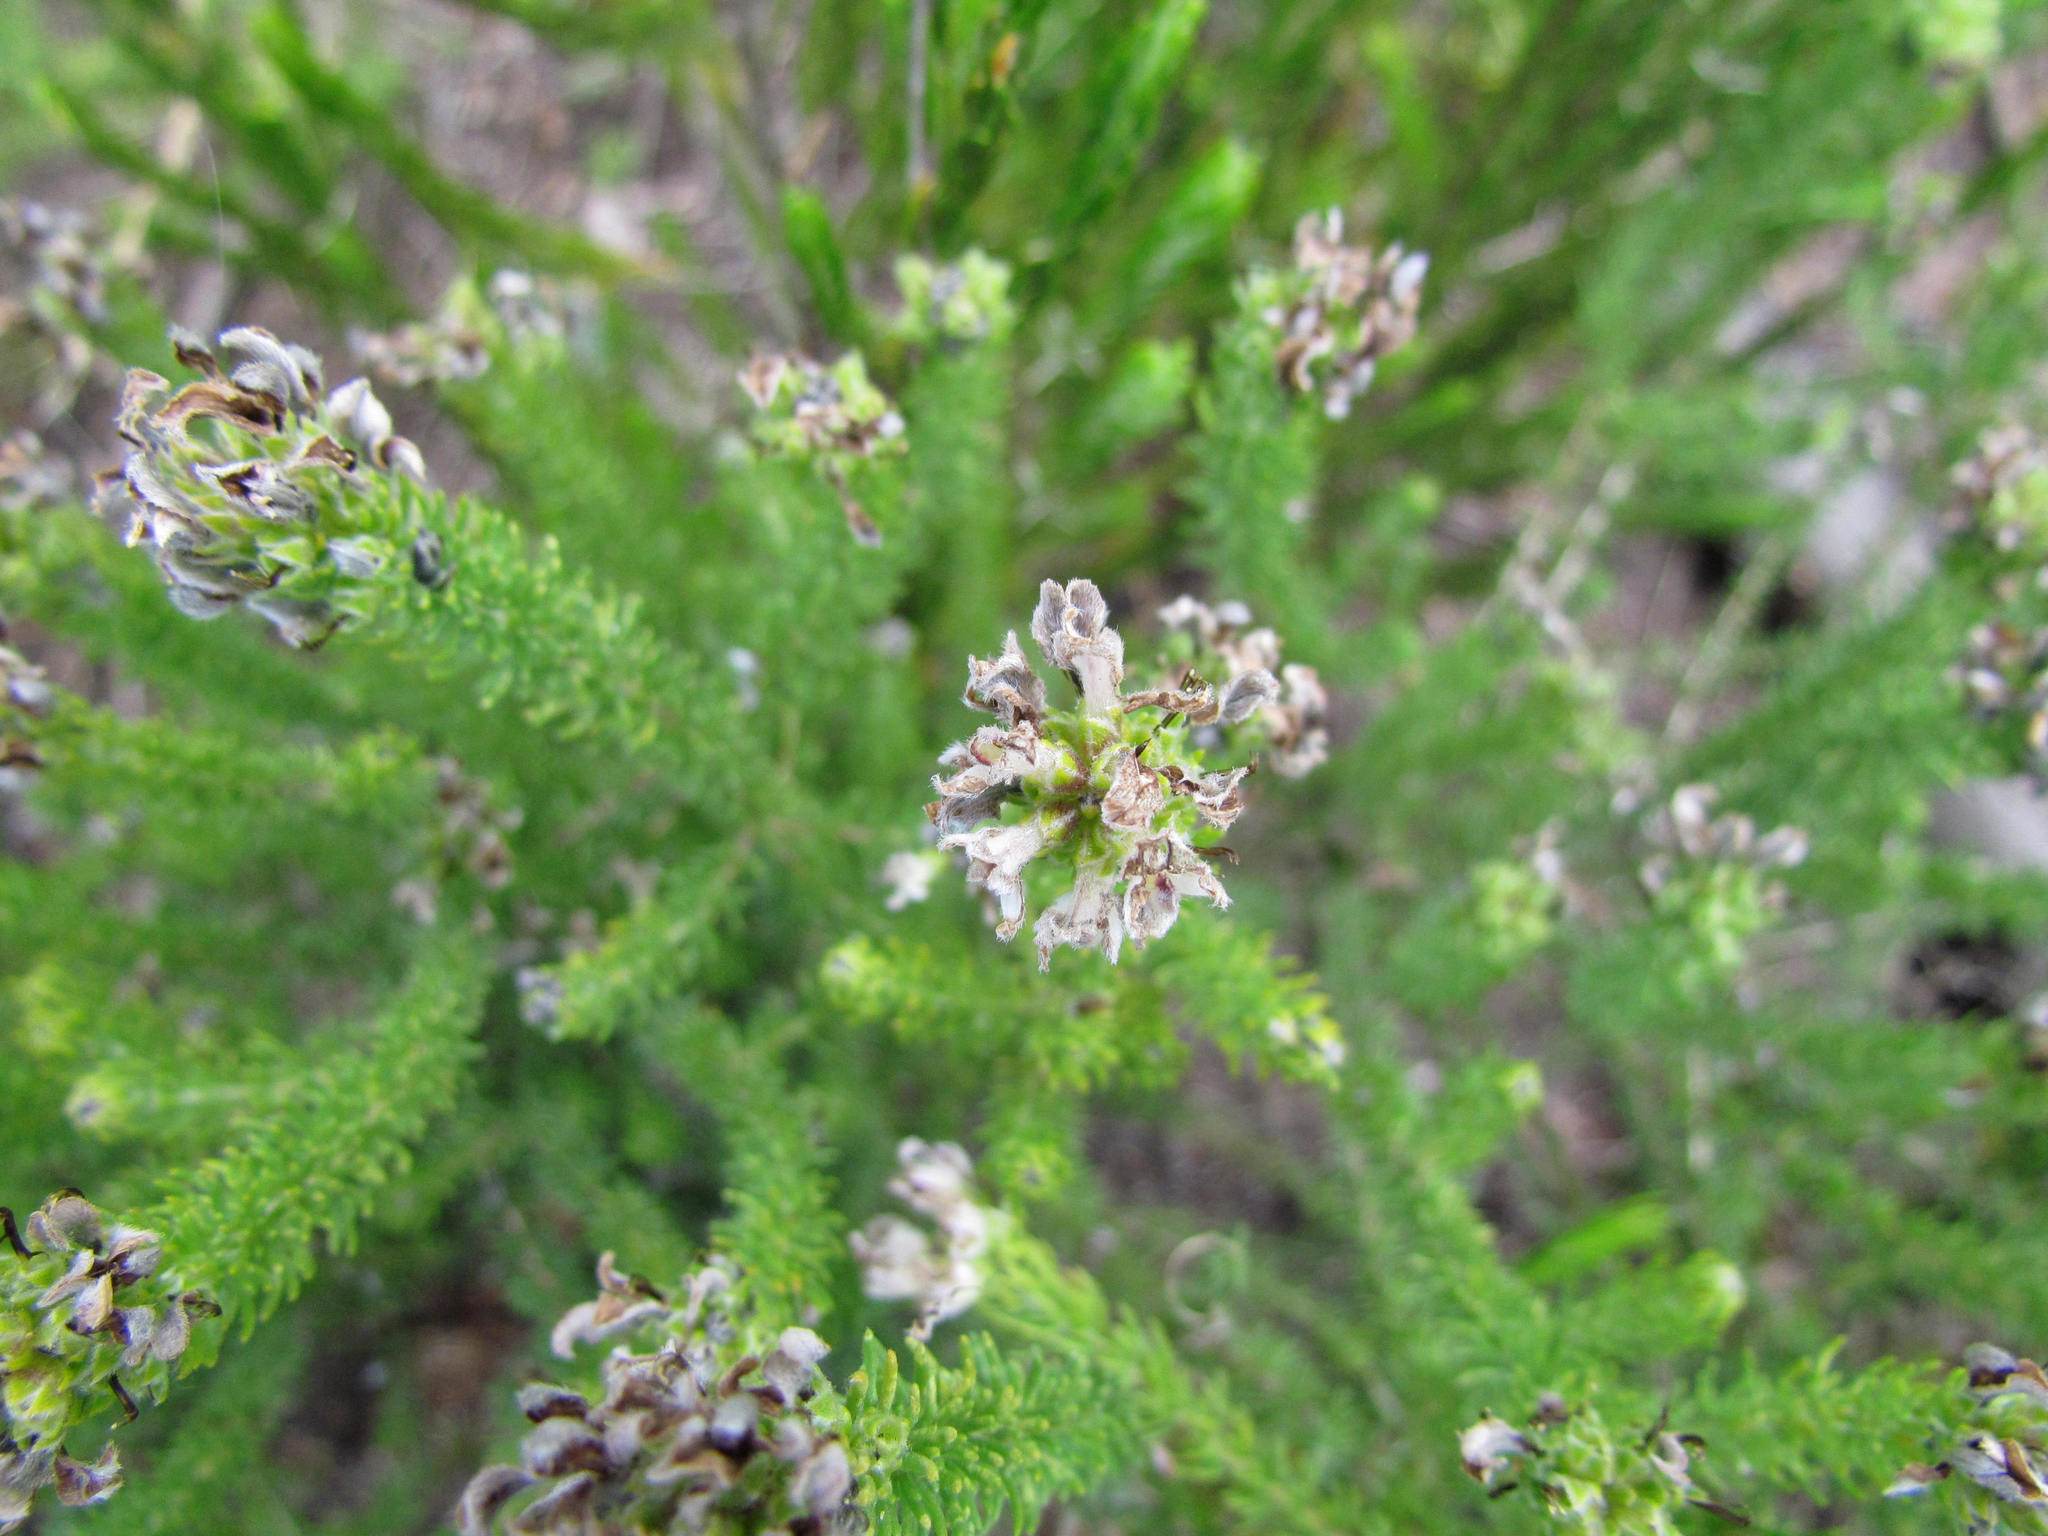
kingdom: Plantae
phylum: Tracheophyta
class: Magnoliopsida
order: Fabales
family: Fabaceae
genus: Aspalathus
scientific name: Aspalathus nigra
